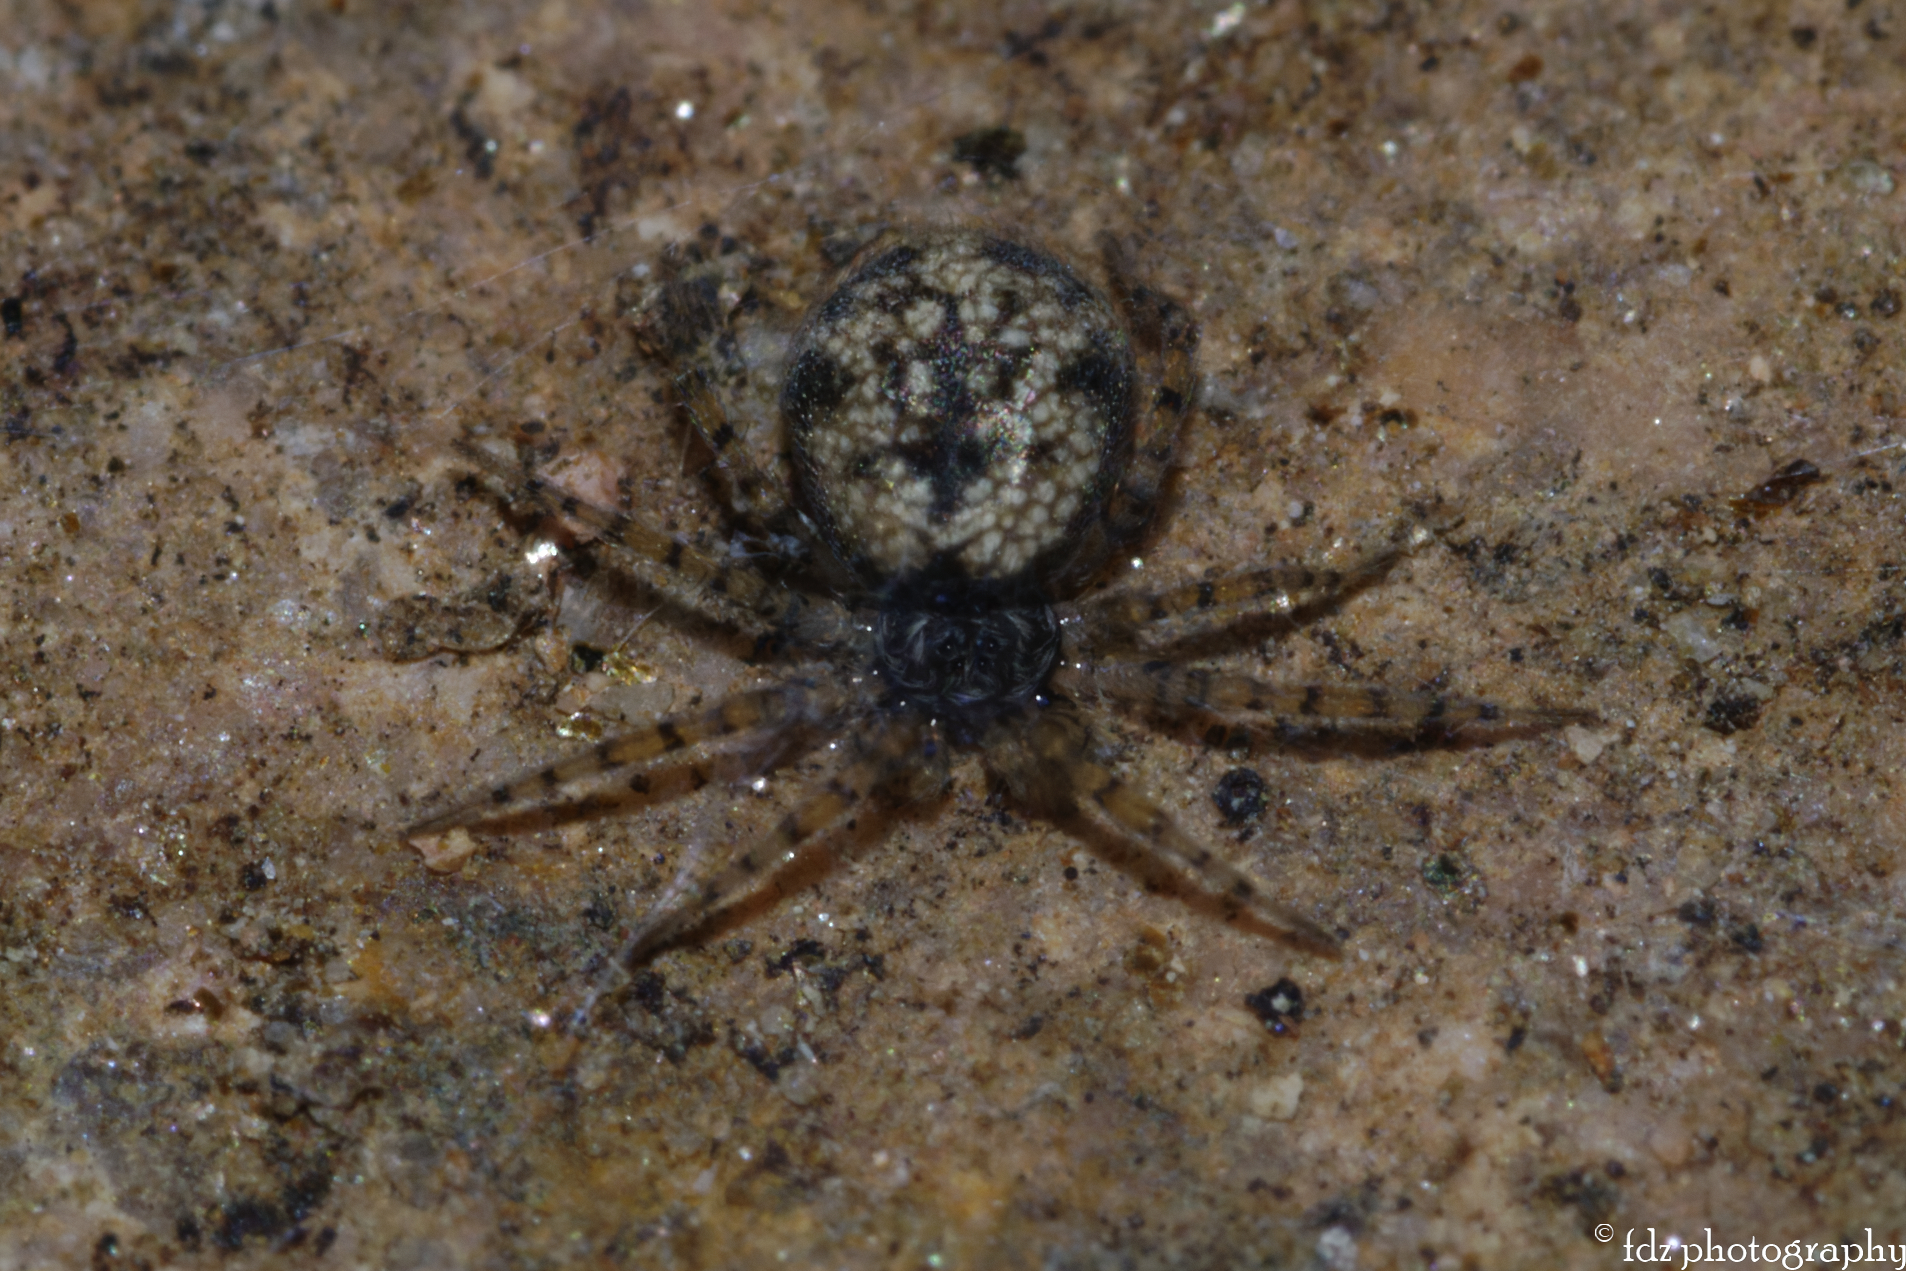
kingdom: Animalia
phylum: Arthropoda
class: Arachnida
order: Araneae
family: Oecobiidae
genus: Oecobius
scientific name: Oecobius maculatus
